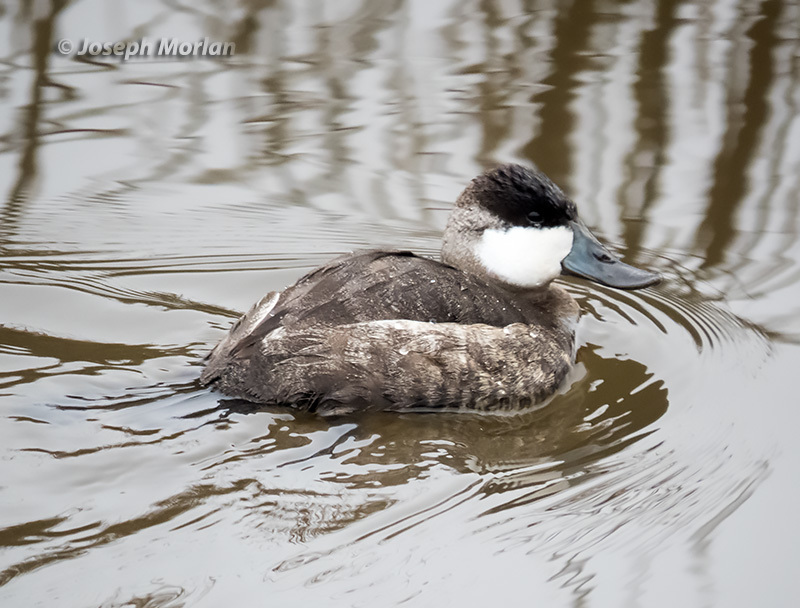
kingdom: Animalia
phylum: Chordata
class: Aves
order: Anseriformes
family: Anatidae
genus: Oxyura
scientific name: Oxyura jamaicensis
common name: Ruddy duck
